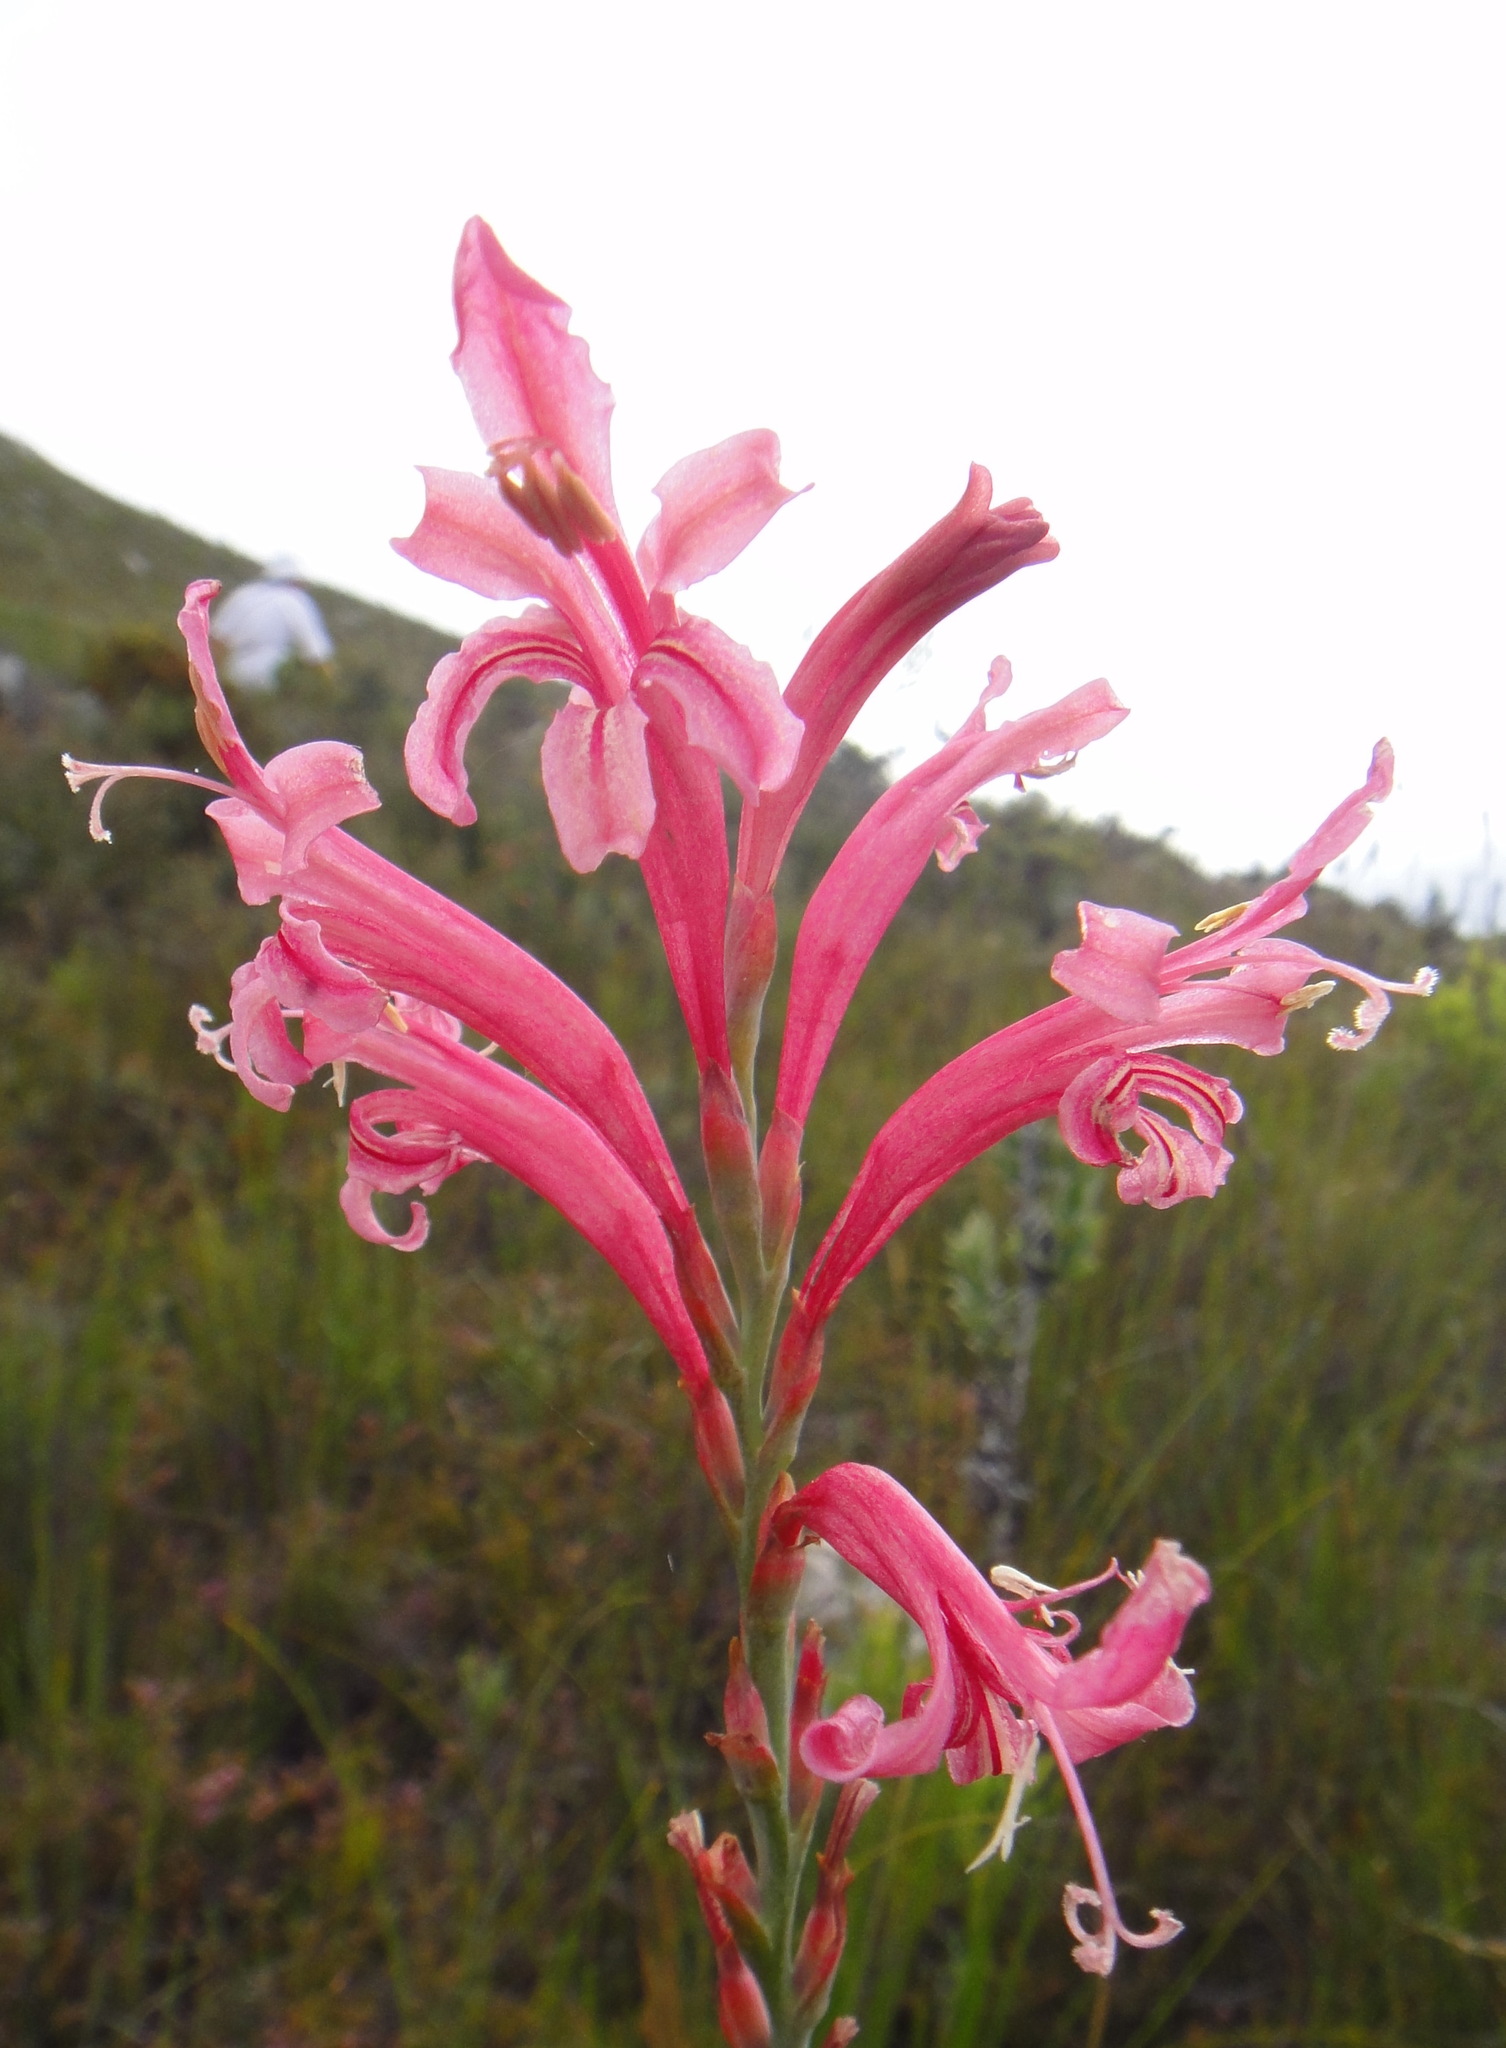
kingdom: Plantae
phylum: Tracheophyta
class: Liliopsida
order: Asparagales
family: Iridaceae
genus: Tritoniopsis
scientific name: Tritoniopsis antholyza
